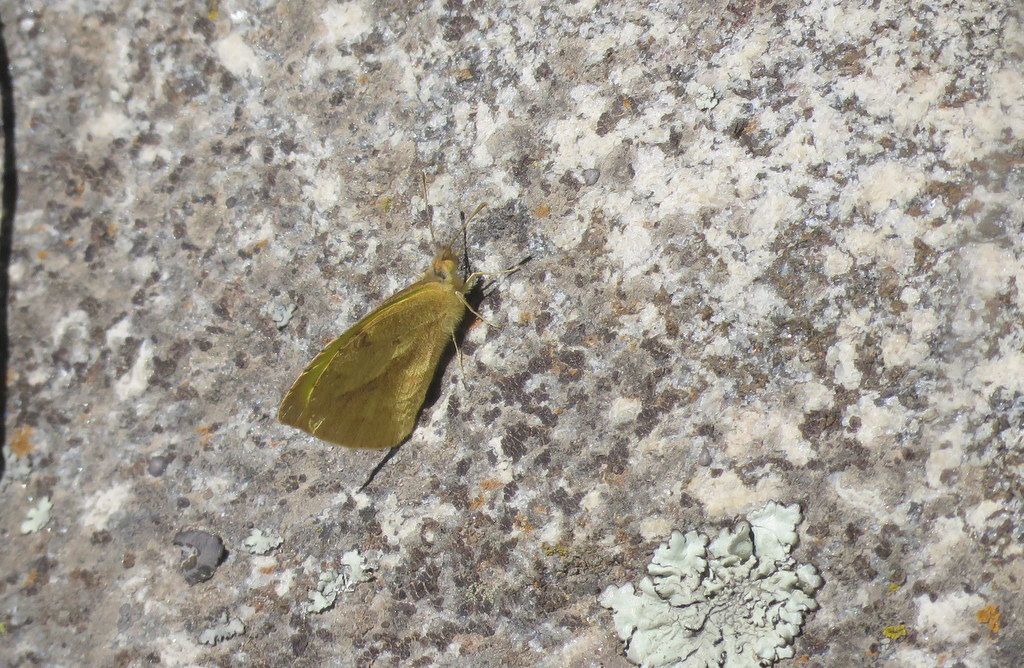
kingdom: Animalia
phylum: Arthropoda
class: Insecta
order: Lepidoptera
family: Pieridae
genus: Teriocolias
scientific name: Teriocolias zelia
